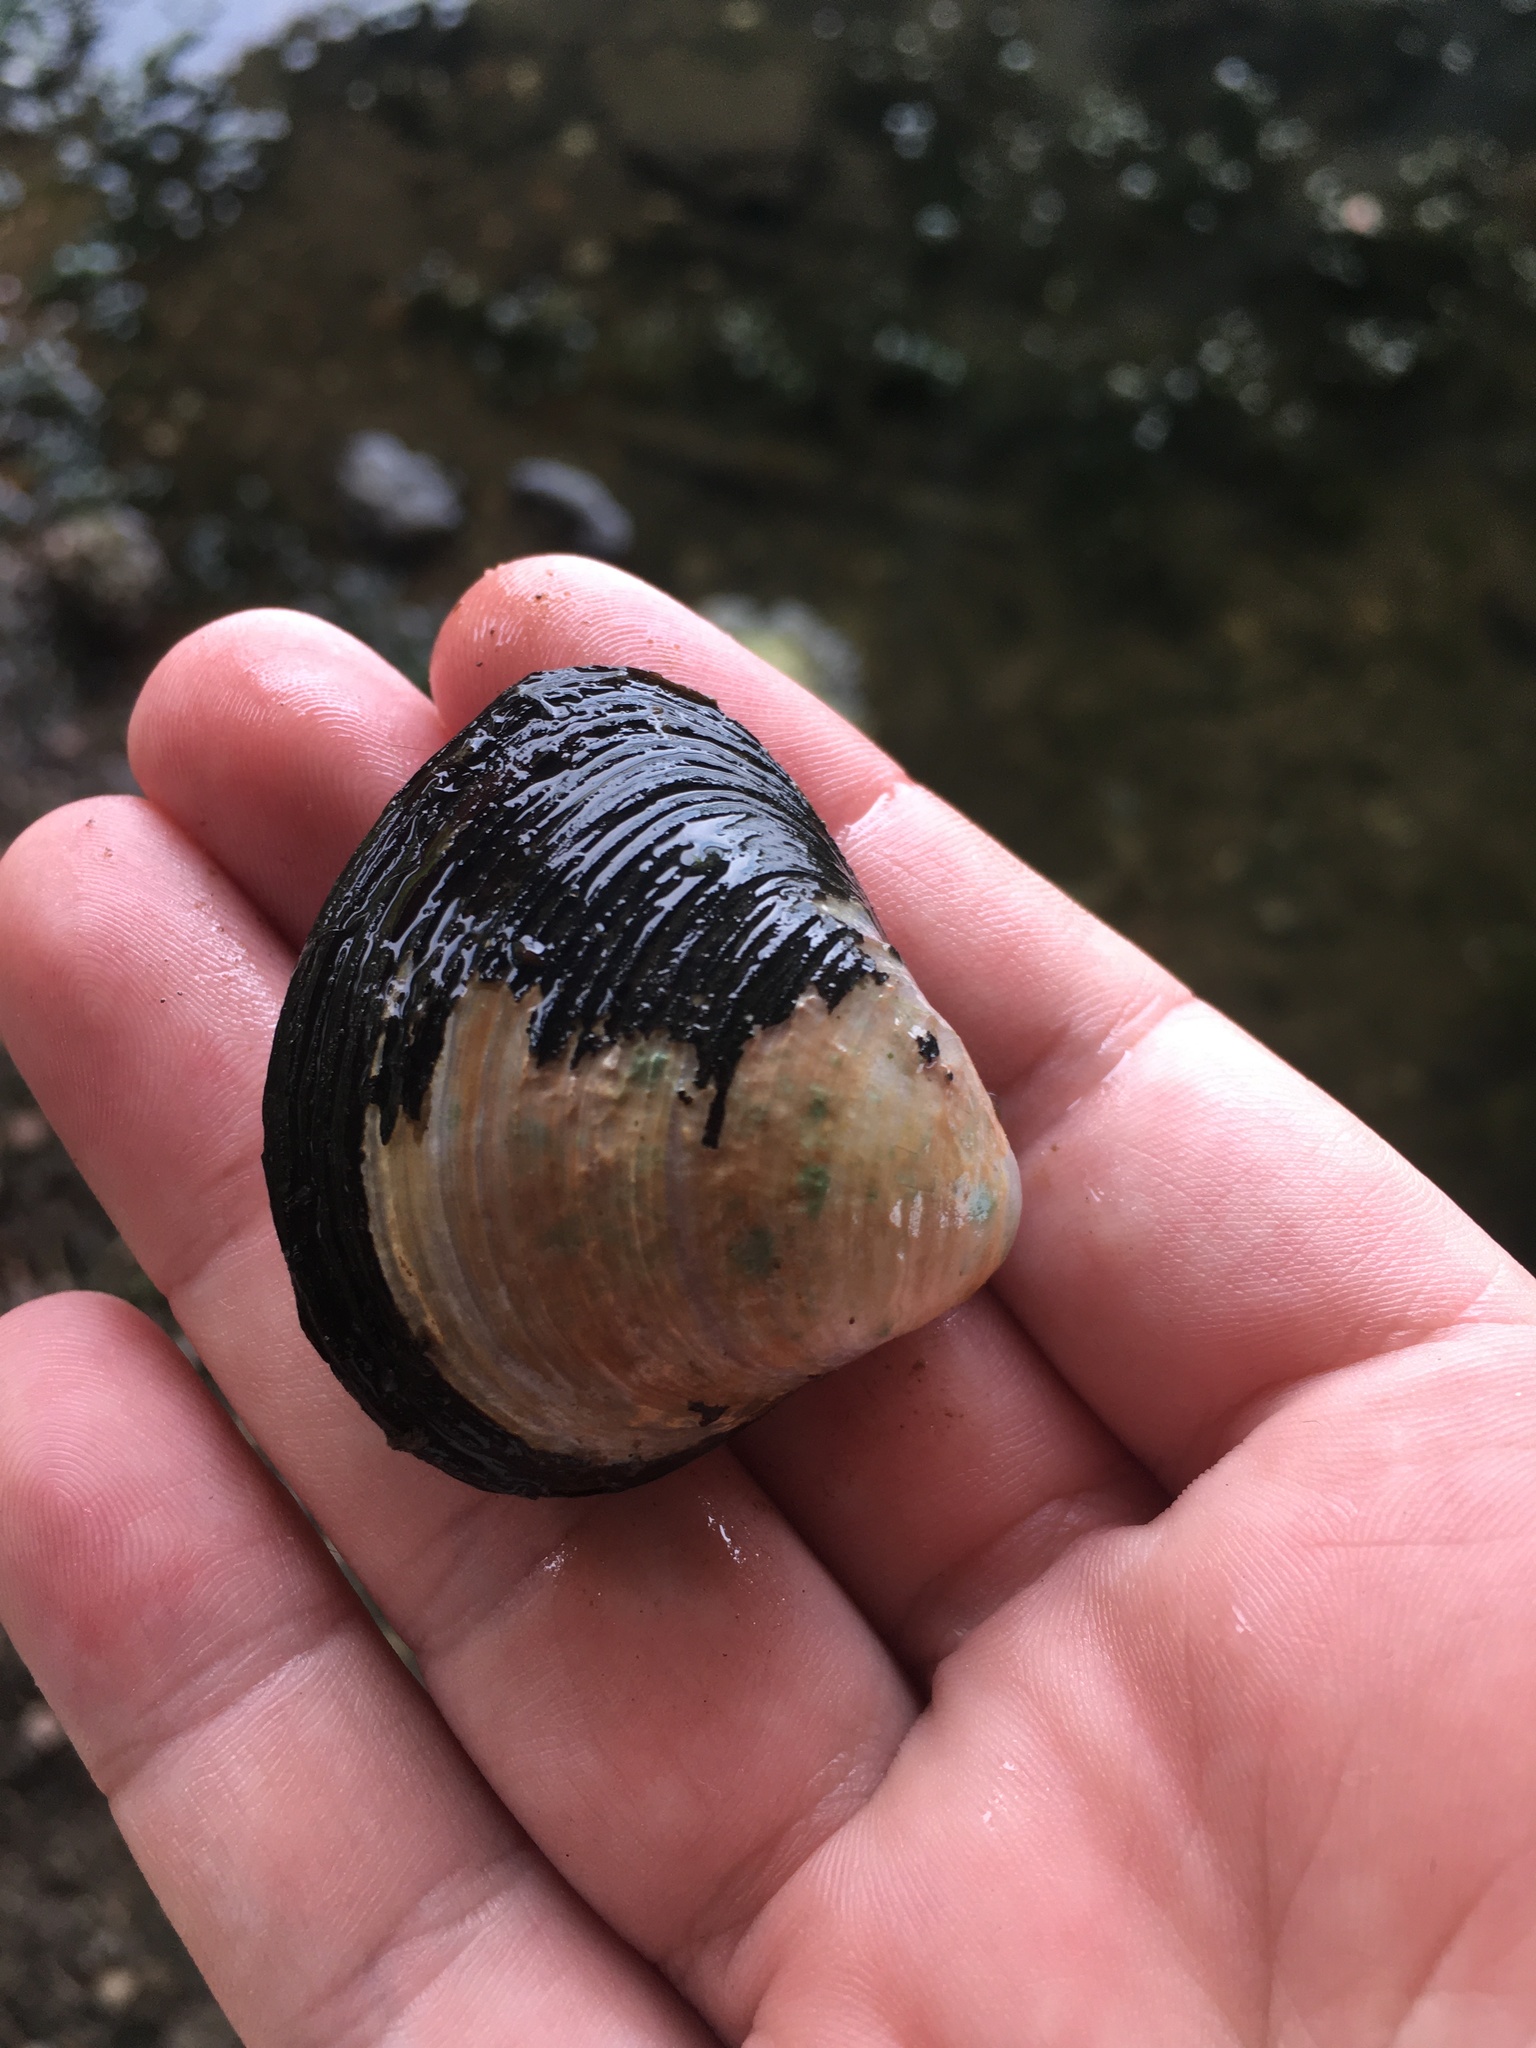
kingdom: Animalia
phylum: Mollusca
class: Bivalvia
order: Venerida
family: Cyrenidae
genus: Corbicula
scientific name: Corbicula fluminea
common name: Asian clam
